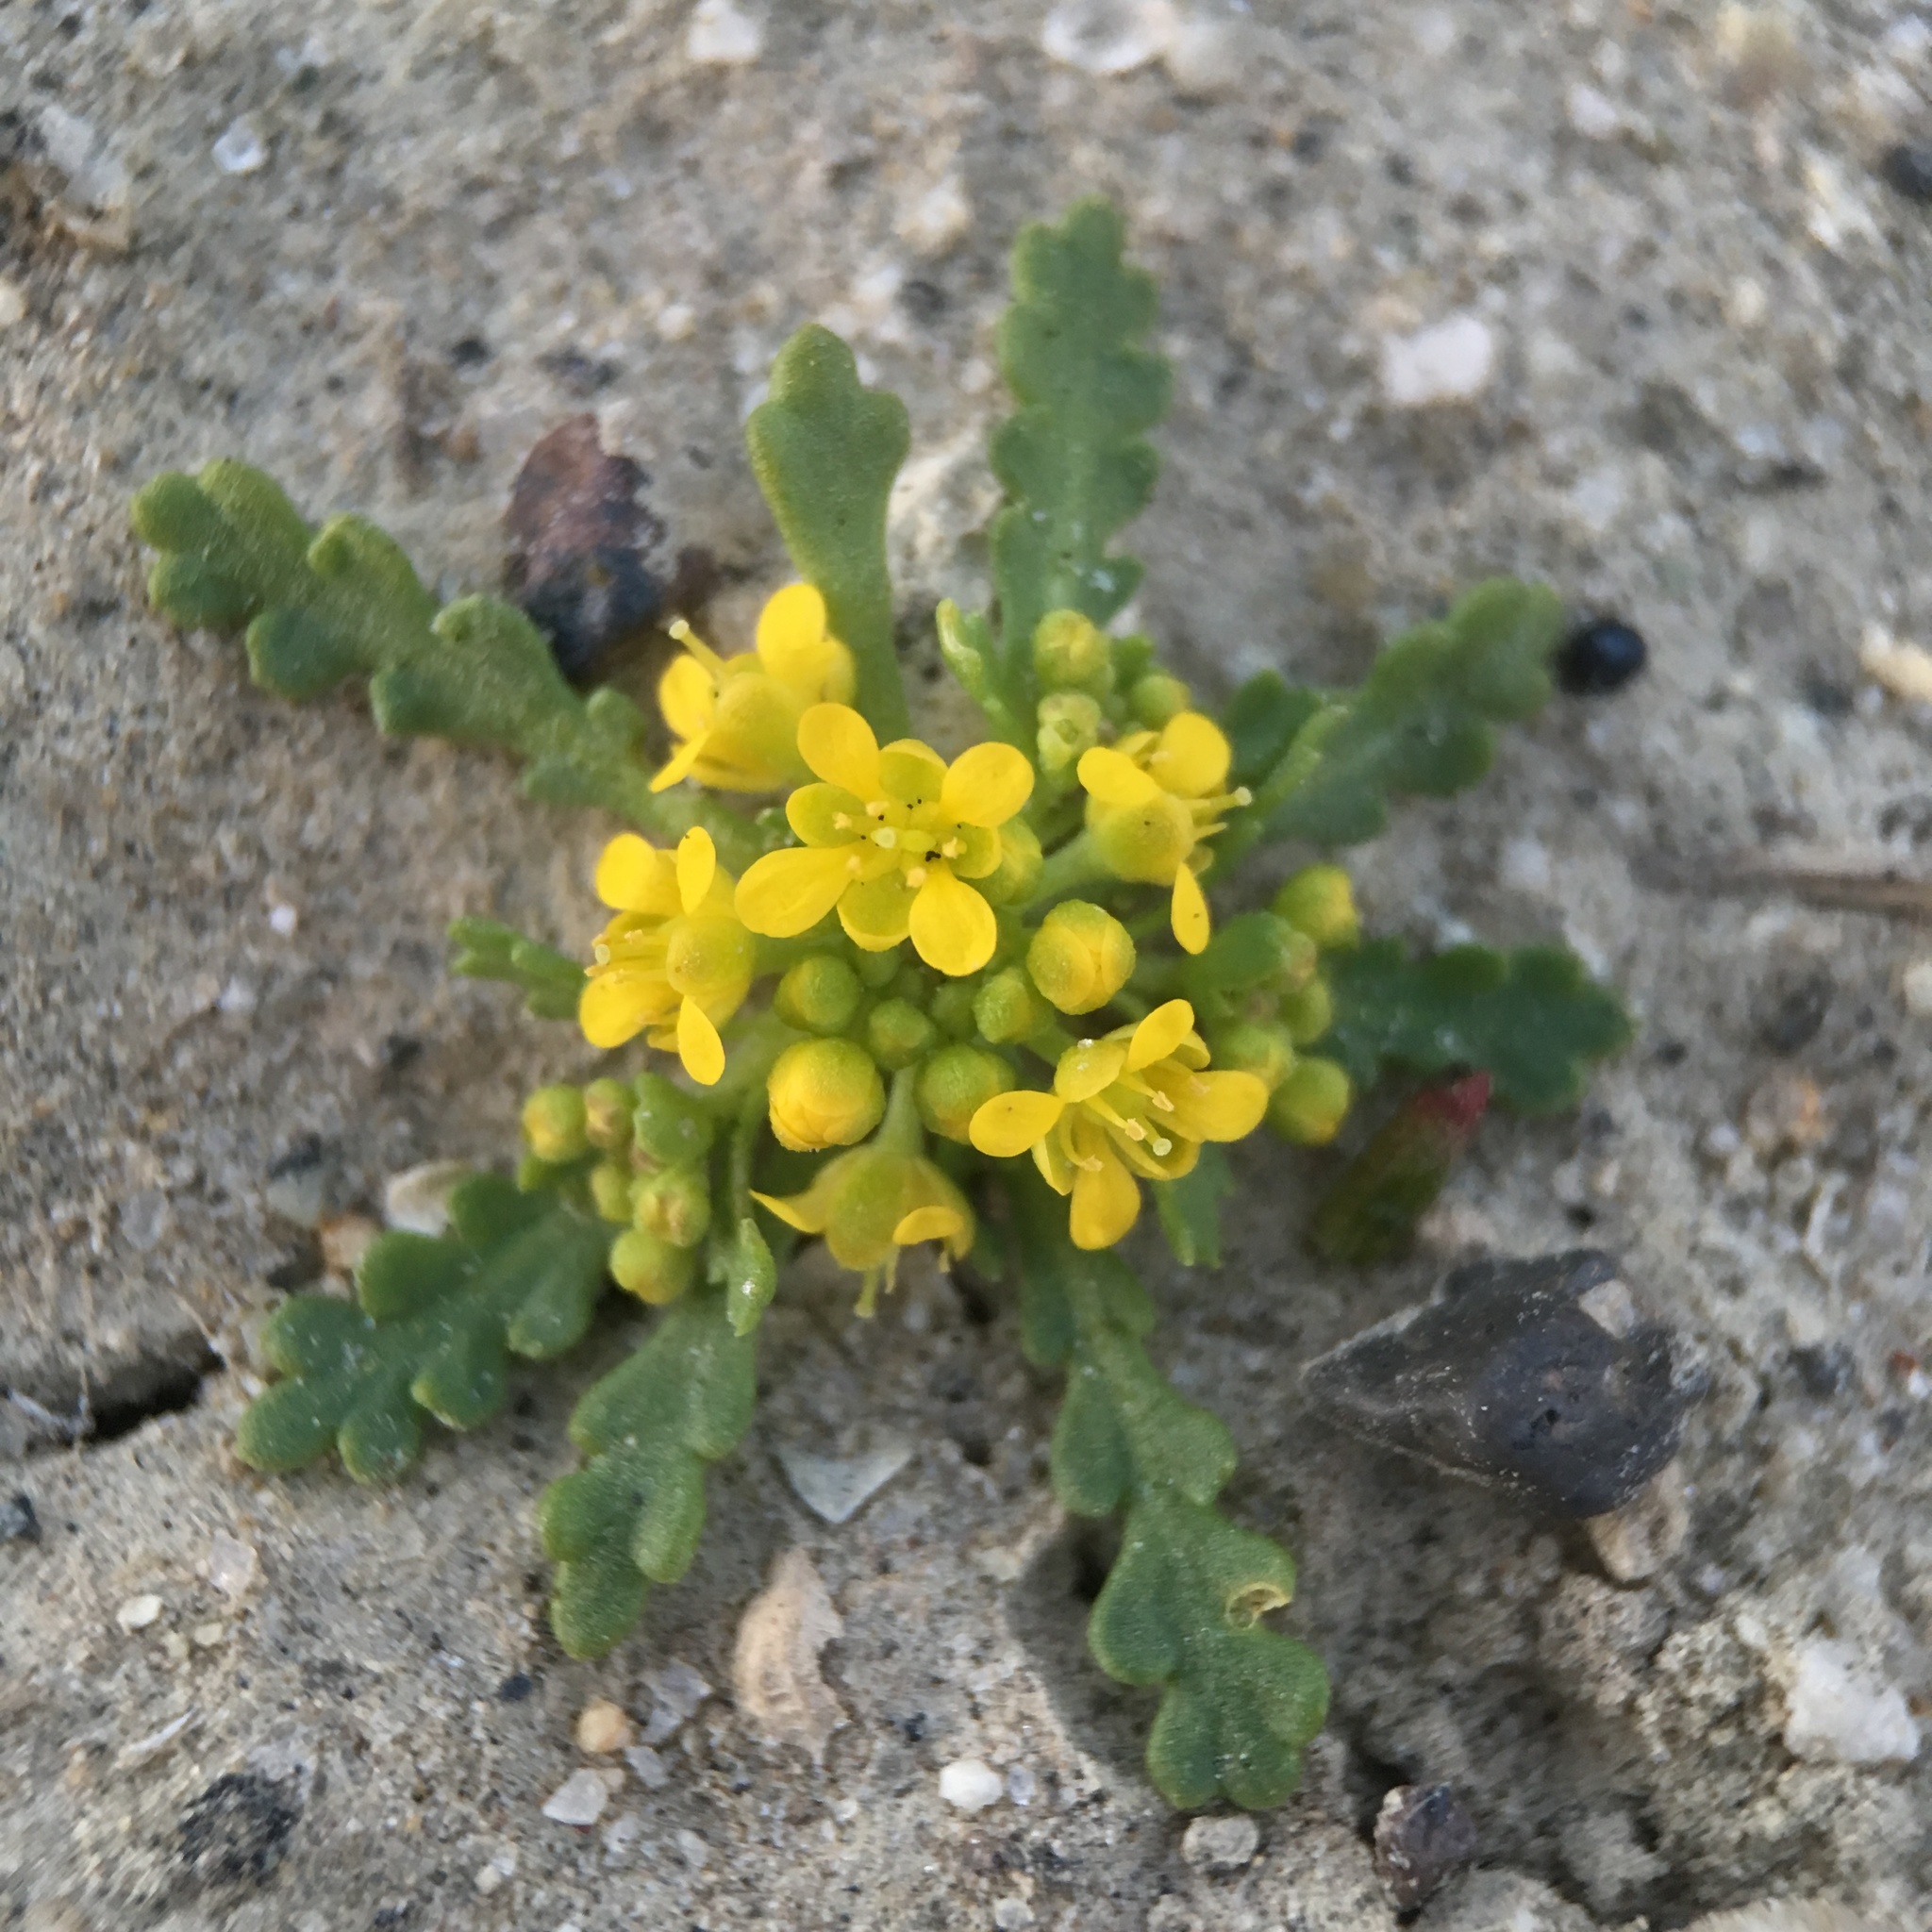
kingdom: Plantae
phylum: Tracheophyta
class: Magnoliopsida
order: Brassicales
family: Brassicaceae
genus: Lepidium
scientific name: Lepidium flavum
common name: Yellow pepperwort
